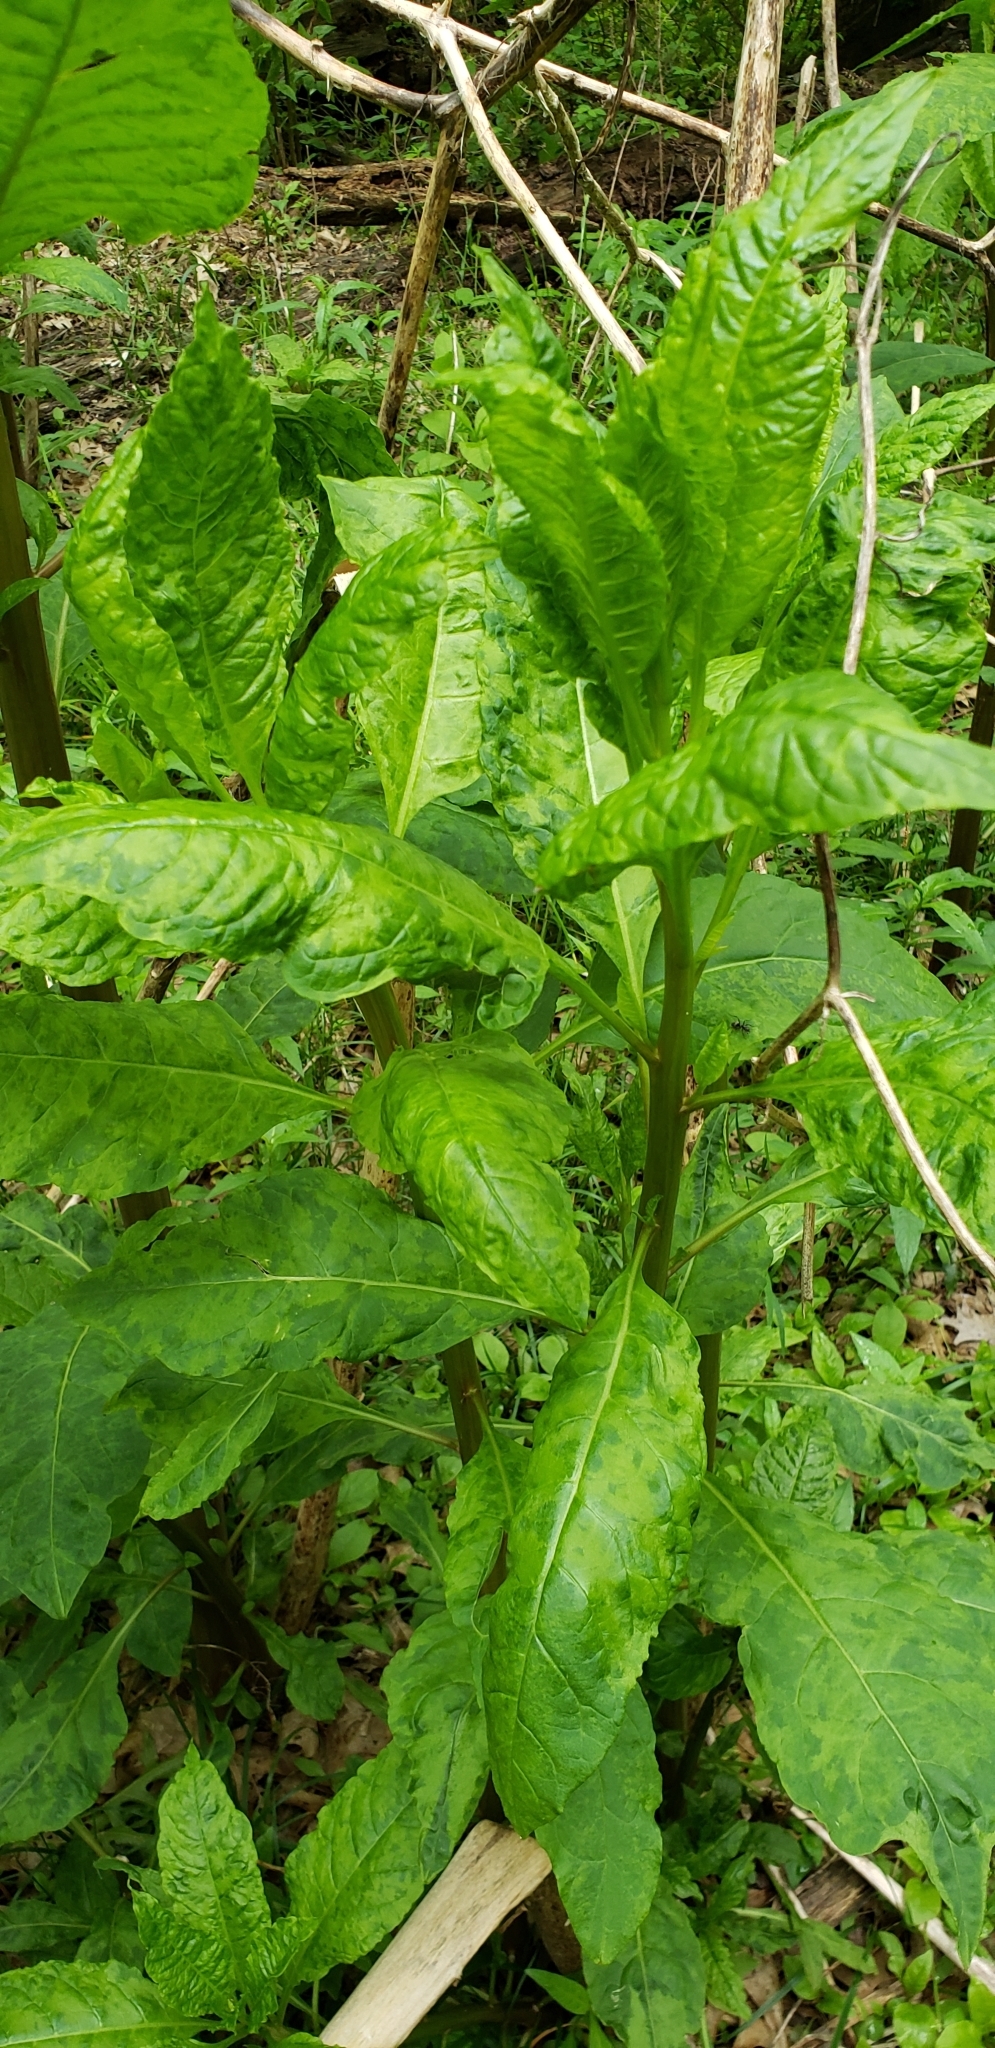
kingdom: Plantae
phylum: Tracheophyta
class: Magnoliopsida
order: Caryophyllales
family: Phytolaccaceae
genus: Phytolacca
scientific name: Phytolacca americana
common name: American pokeweed
